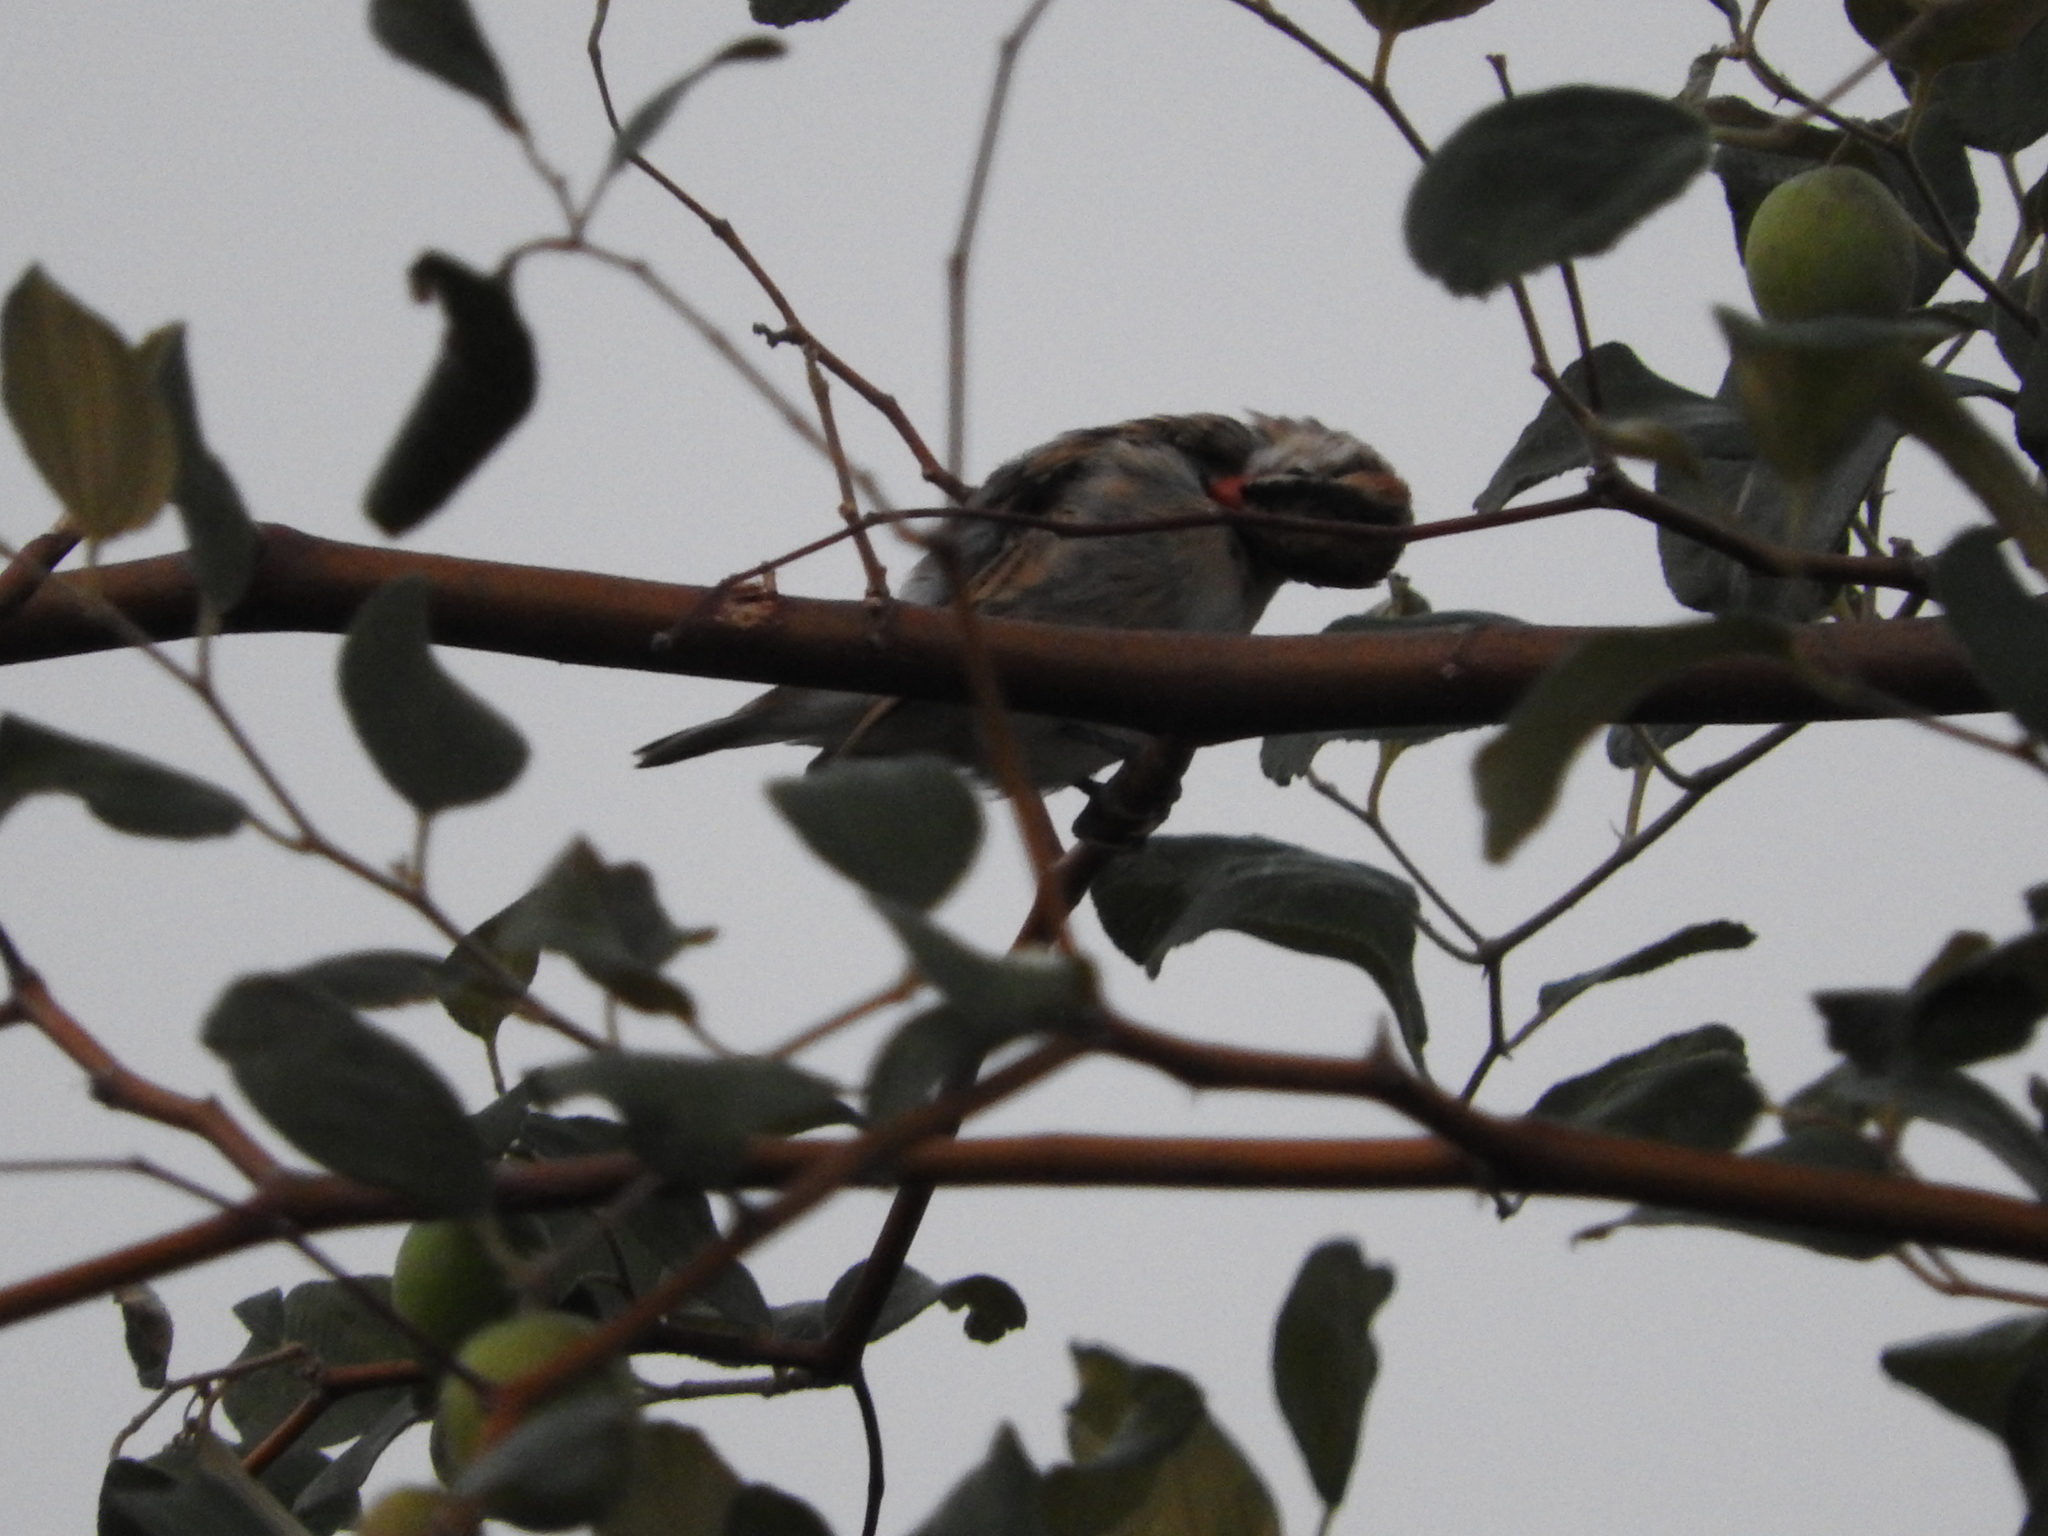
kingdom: Animalia
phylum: Chordata
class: Aves
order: Passeriformes
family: Viduidae
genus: Vidua
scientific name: Vidua macroura
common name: Pin-tailed whydah
